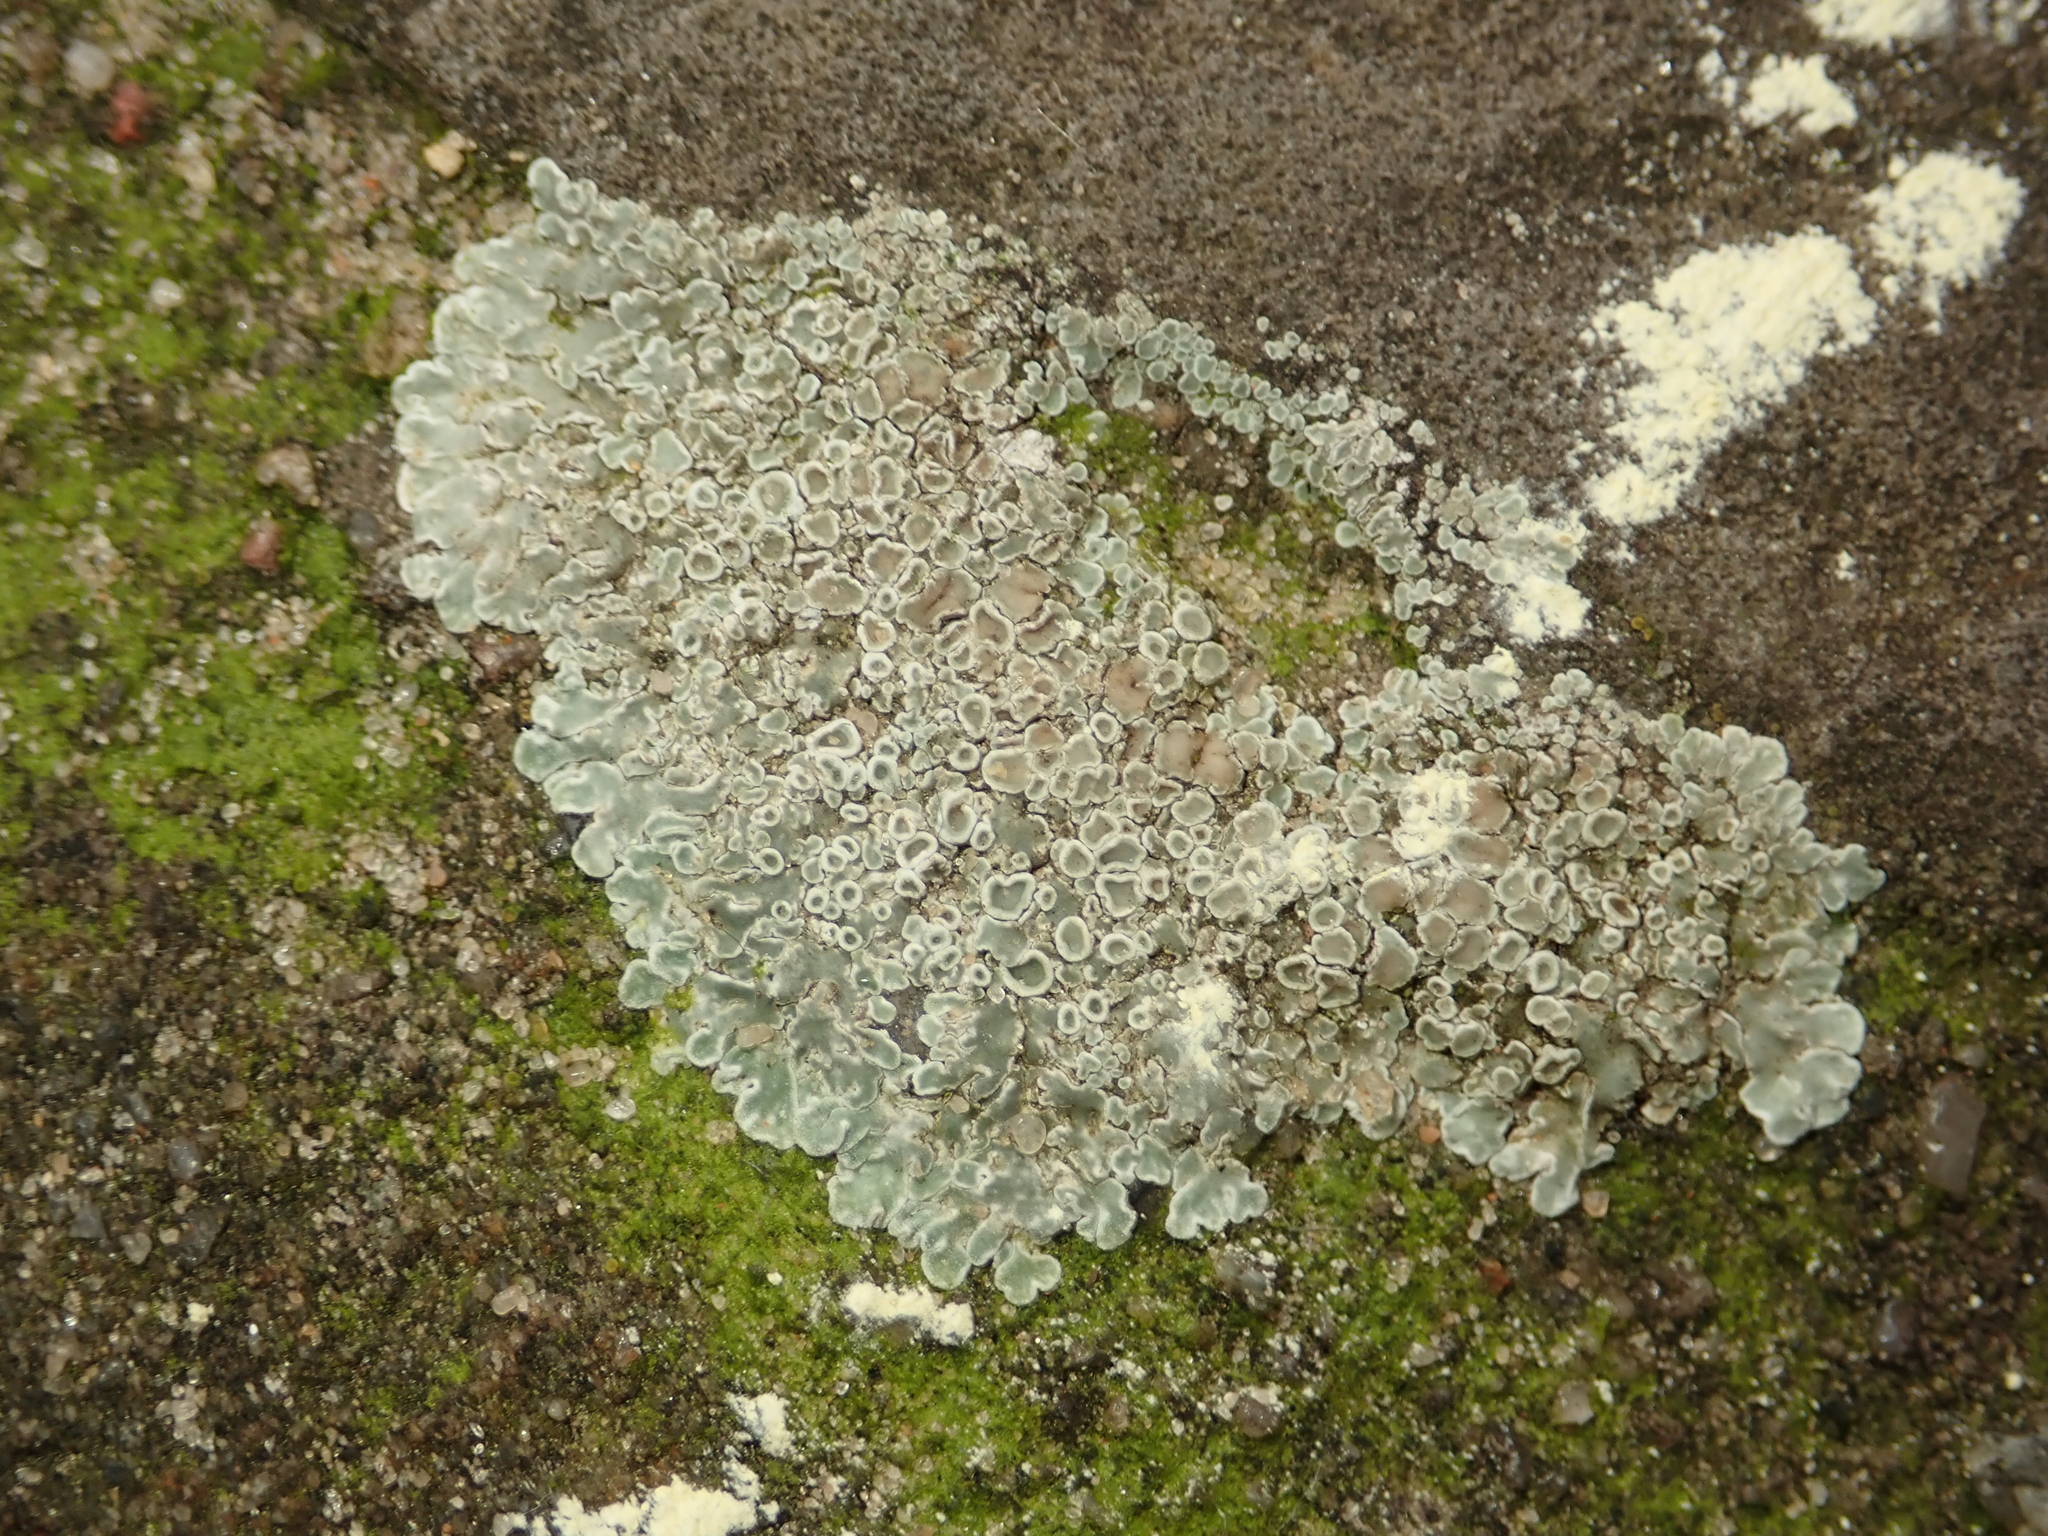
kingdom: Fungi
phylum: Ascomycota
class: Lecanoromycetes
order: Lecanorales
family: Lecanoraceae
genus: Protoparmeliopsis
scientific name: Protoparmeliopsis muralis
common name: Stonewall rim lichen
